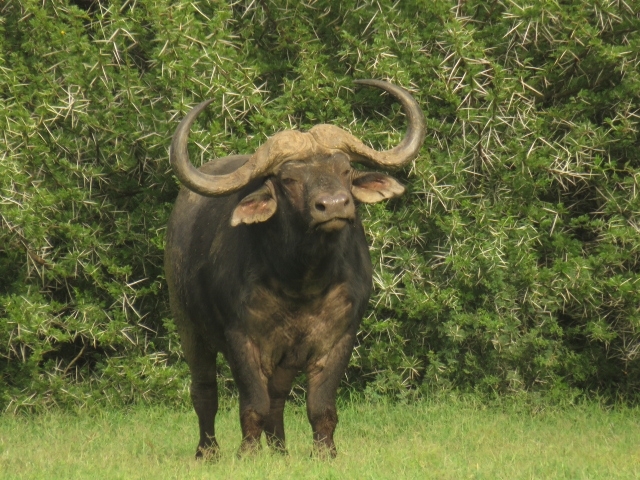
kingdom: Animalia
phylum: Chordata
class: Mammalia
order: Artiodactyla
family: Bovidae
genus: Syncerus
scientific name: Syncerus caffer
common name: African buffalo
